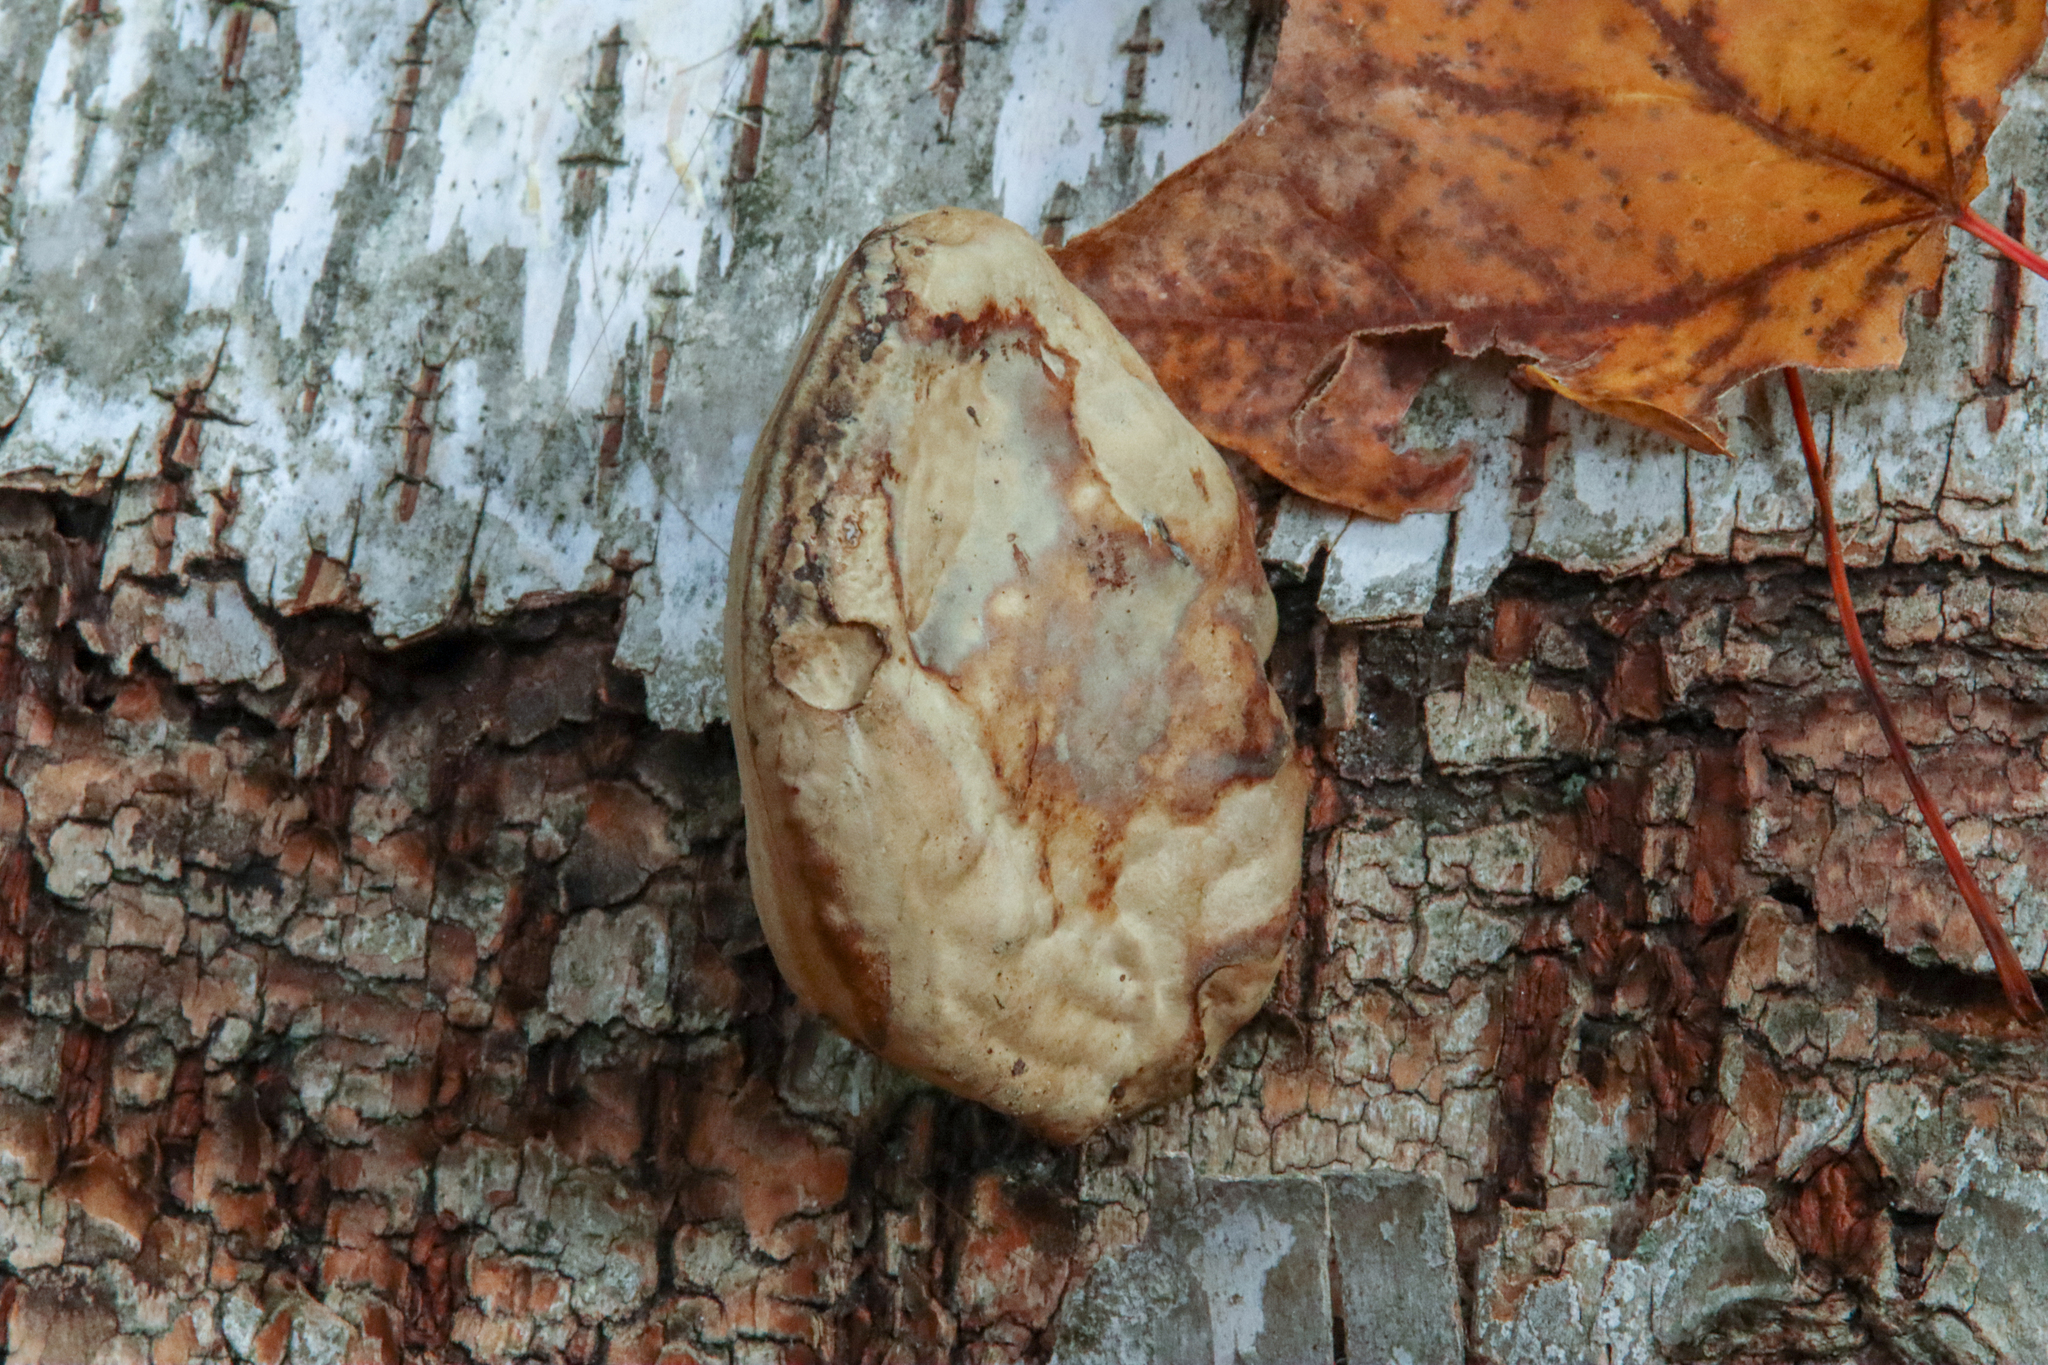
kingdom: Fungi
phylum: Basidiomycota
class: Agaricomycetes
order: Polyporales
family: Polyporaceae
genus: Fomes
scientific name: Fomes fomentarius
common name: Hoof fungus
